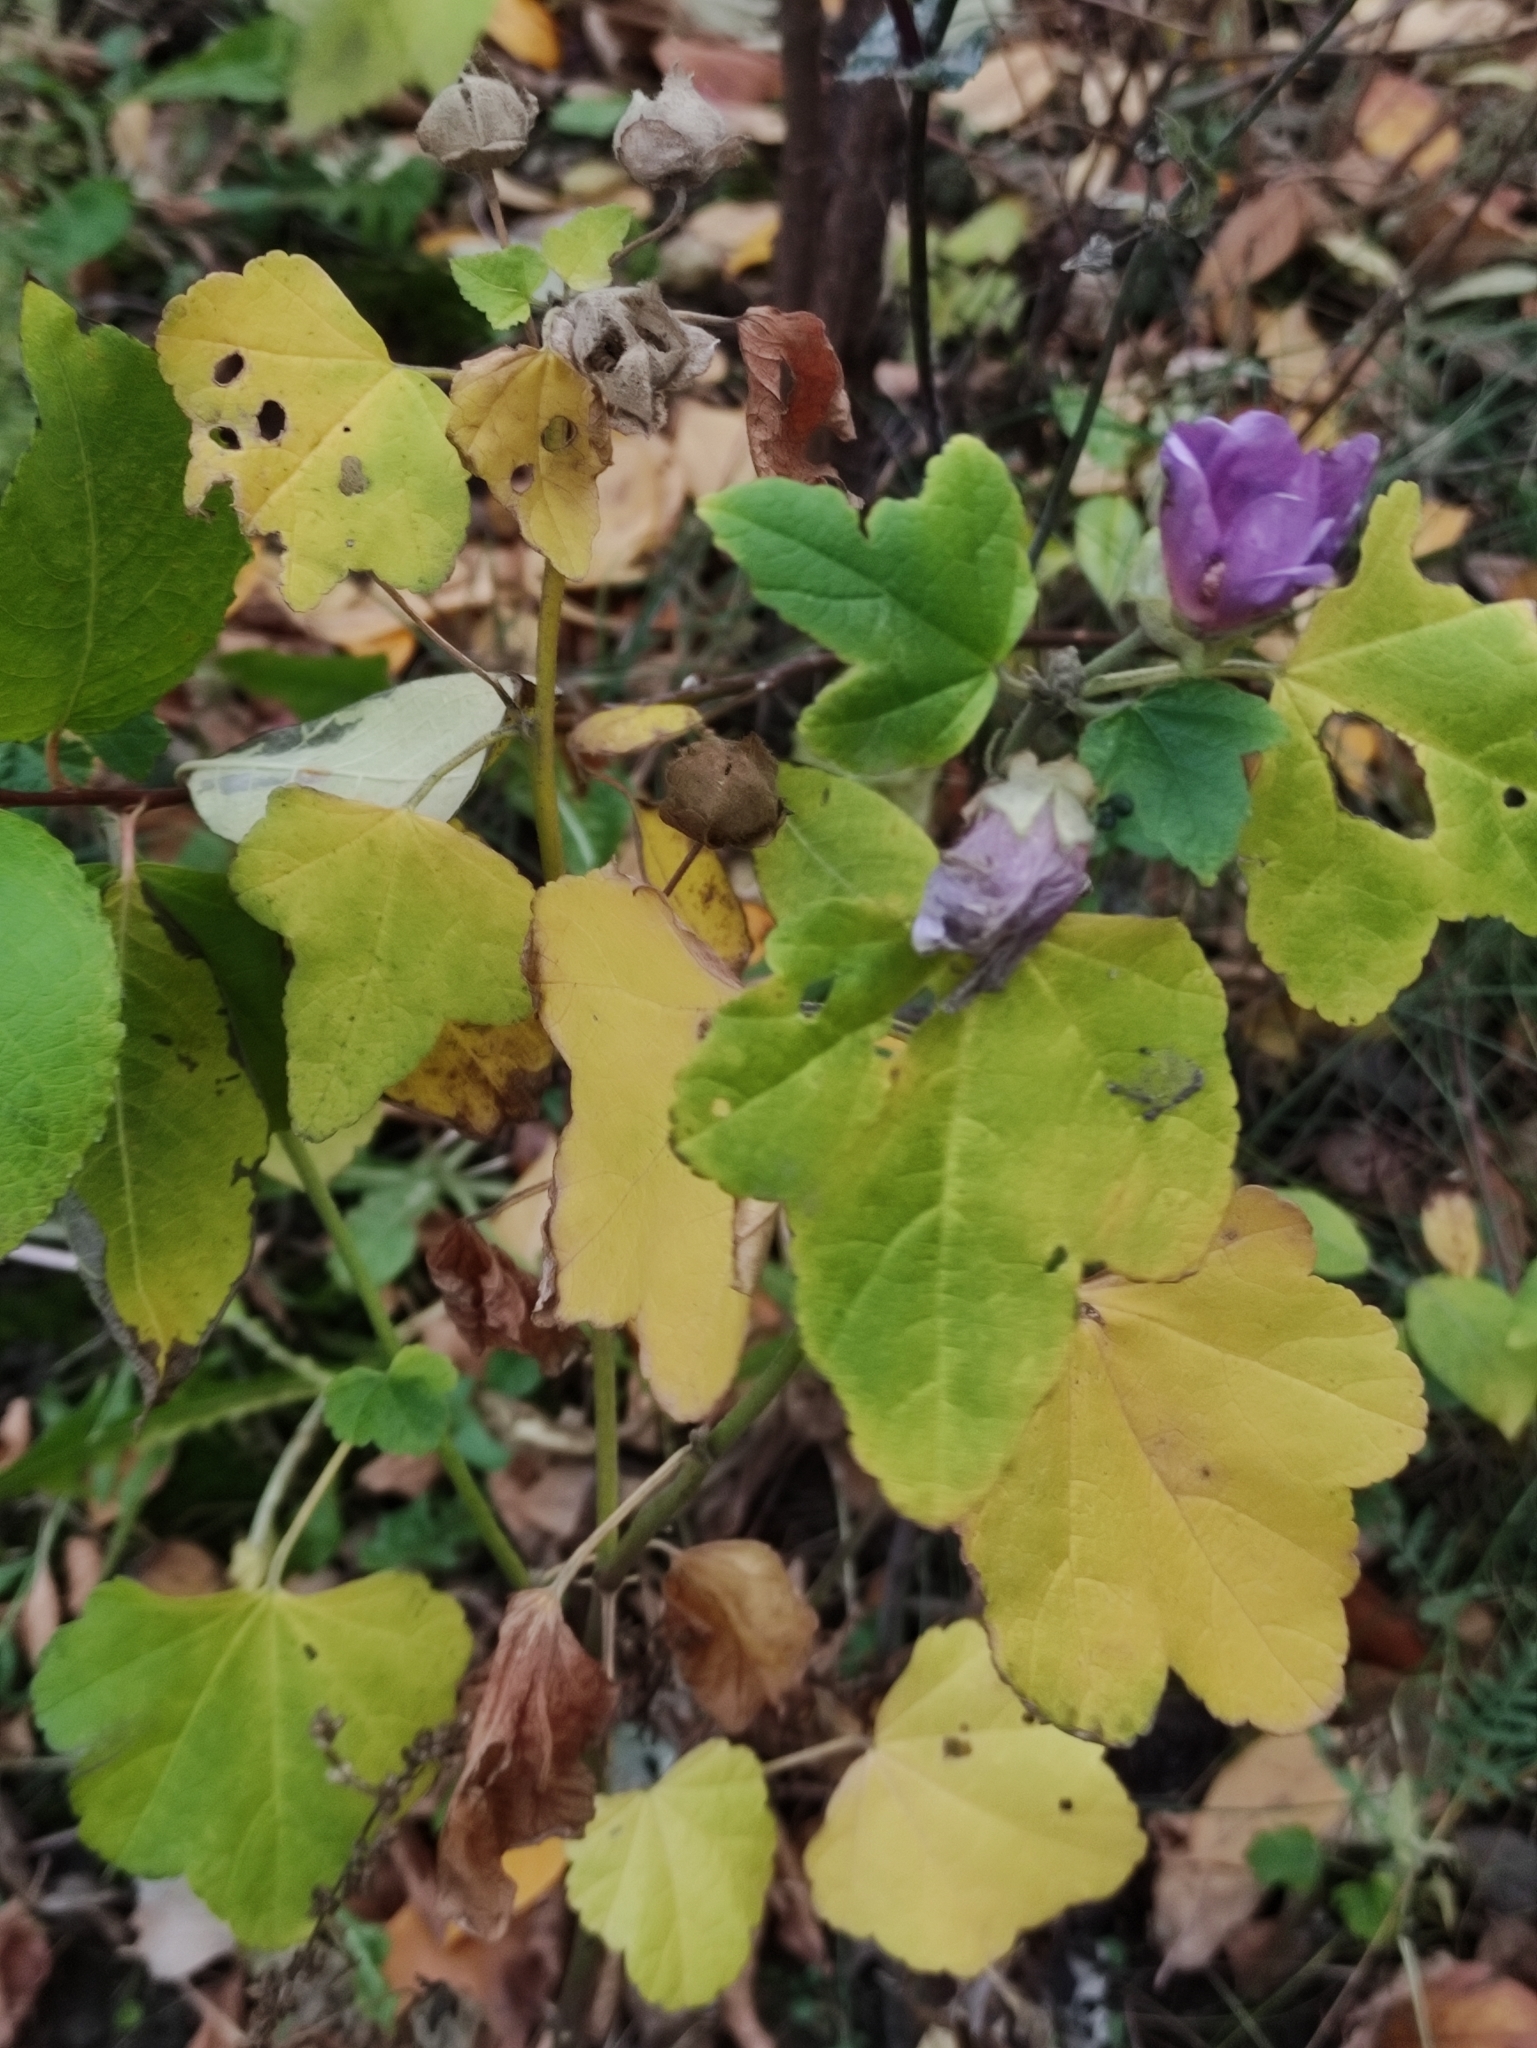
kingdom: Plantae
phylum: Tracheophyta
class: Magnoliopsida
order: Malvales
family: Malvaceae
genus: Malva
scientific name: Malva thuringiaca
